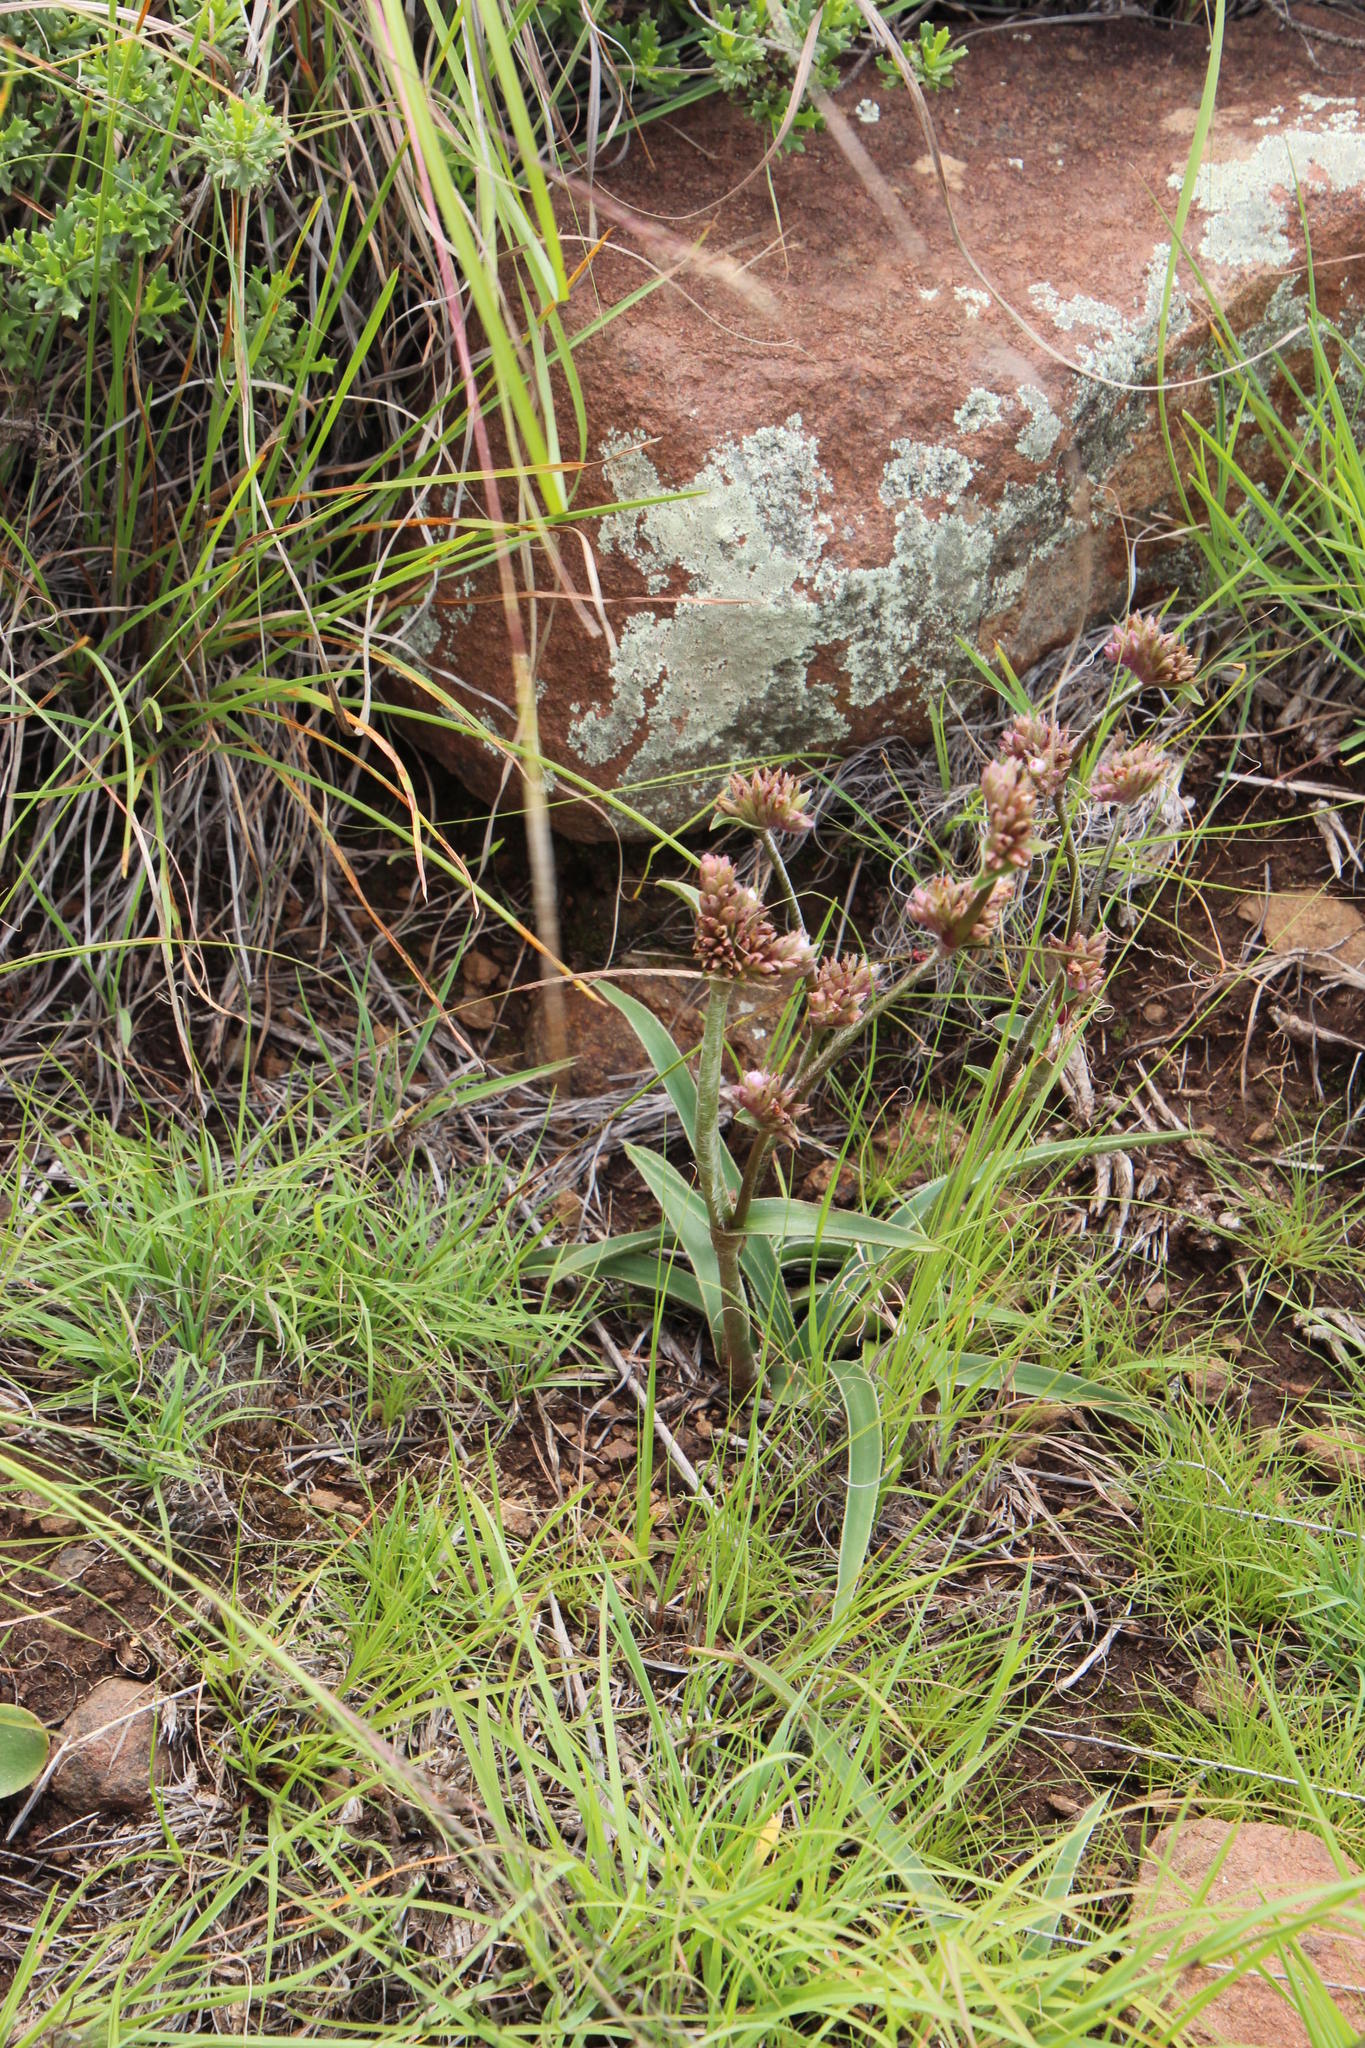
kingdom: Plantae
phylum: Tracheophyta
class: Liliopsida
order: Commelinales
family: Commelinaceae
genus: Cyanotis
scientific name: Cyanotis speciosa
